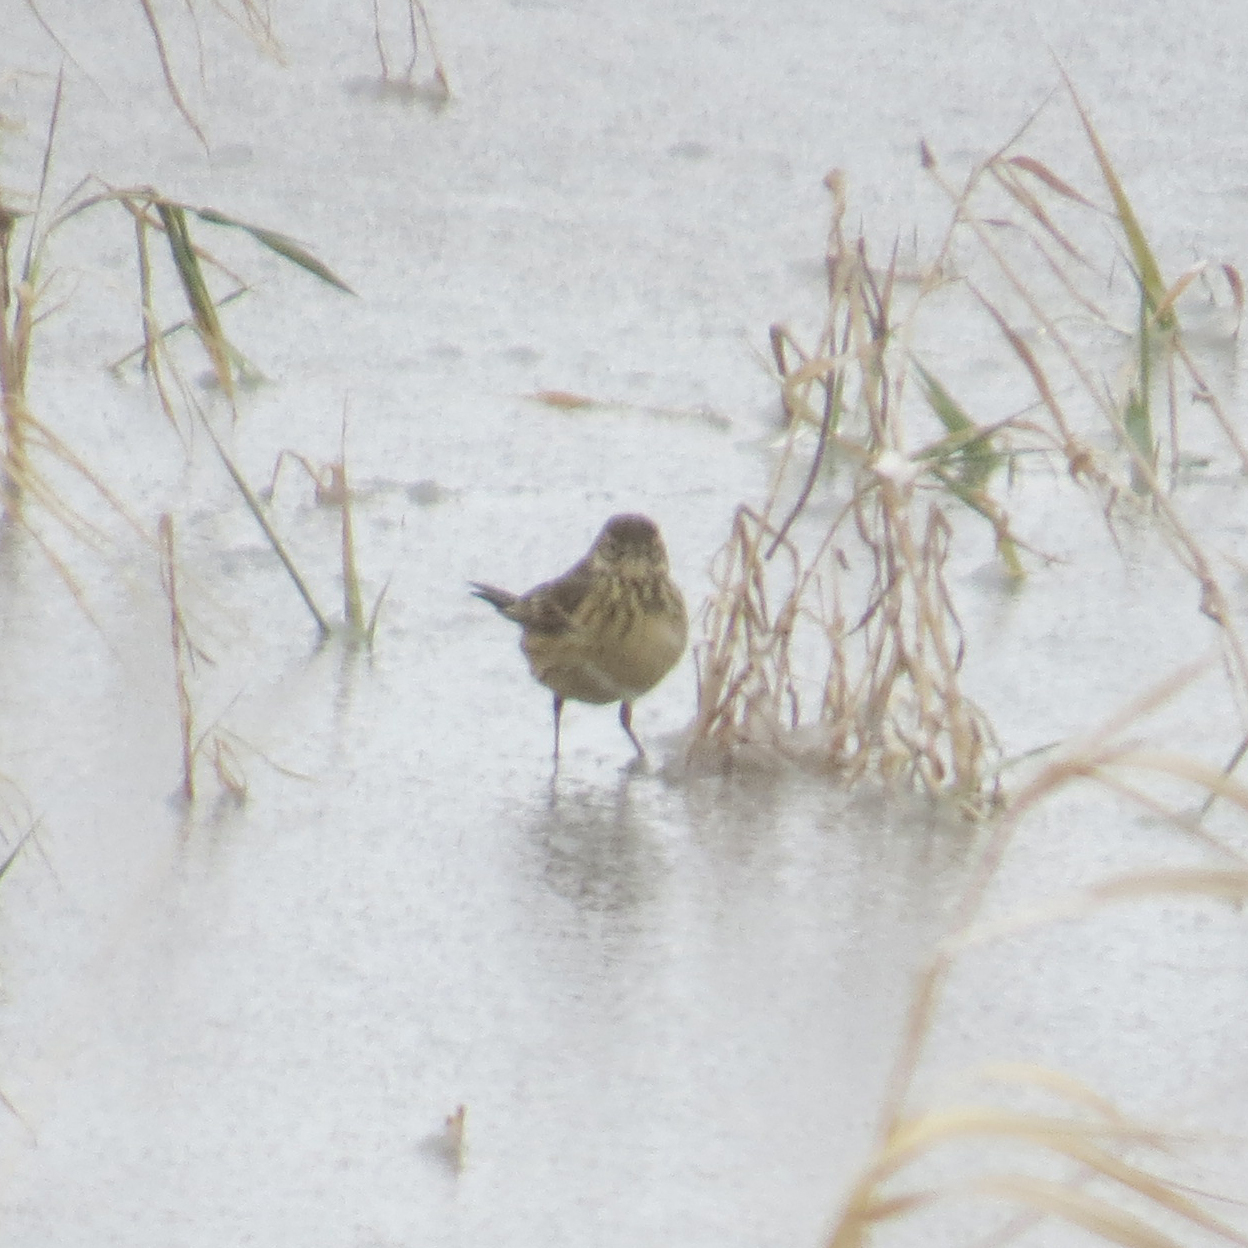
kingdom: Animalia
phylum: Chordata
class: Aves
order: Passeriformes
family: Motacillidae
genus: Anthus
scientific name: Anthus rubescens
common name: Buff-bellied pipit
